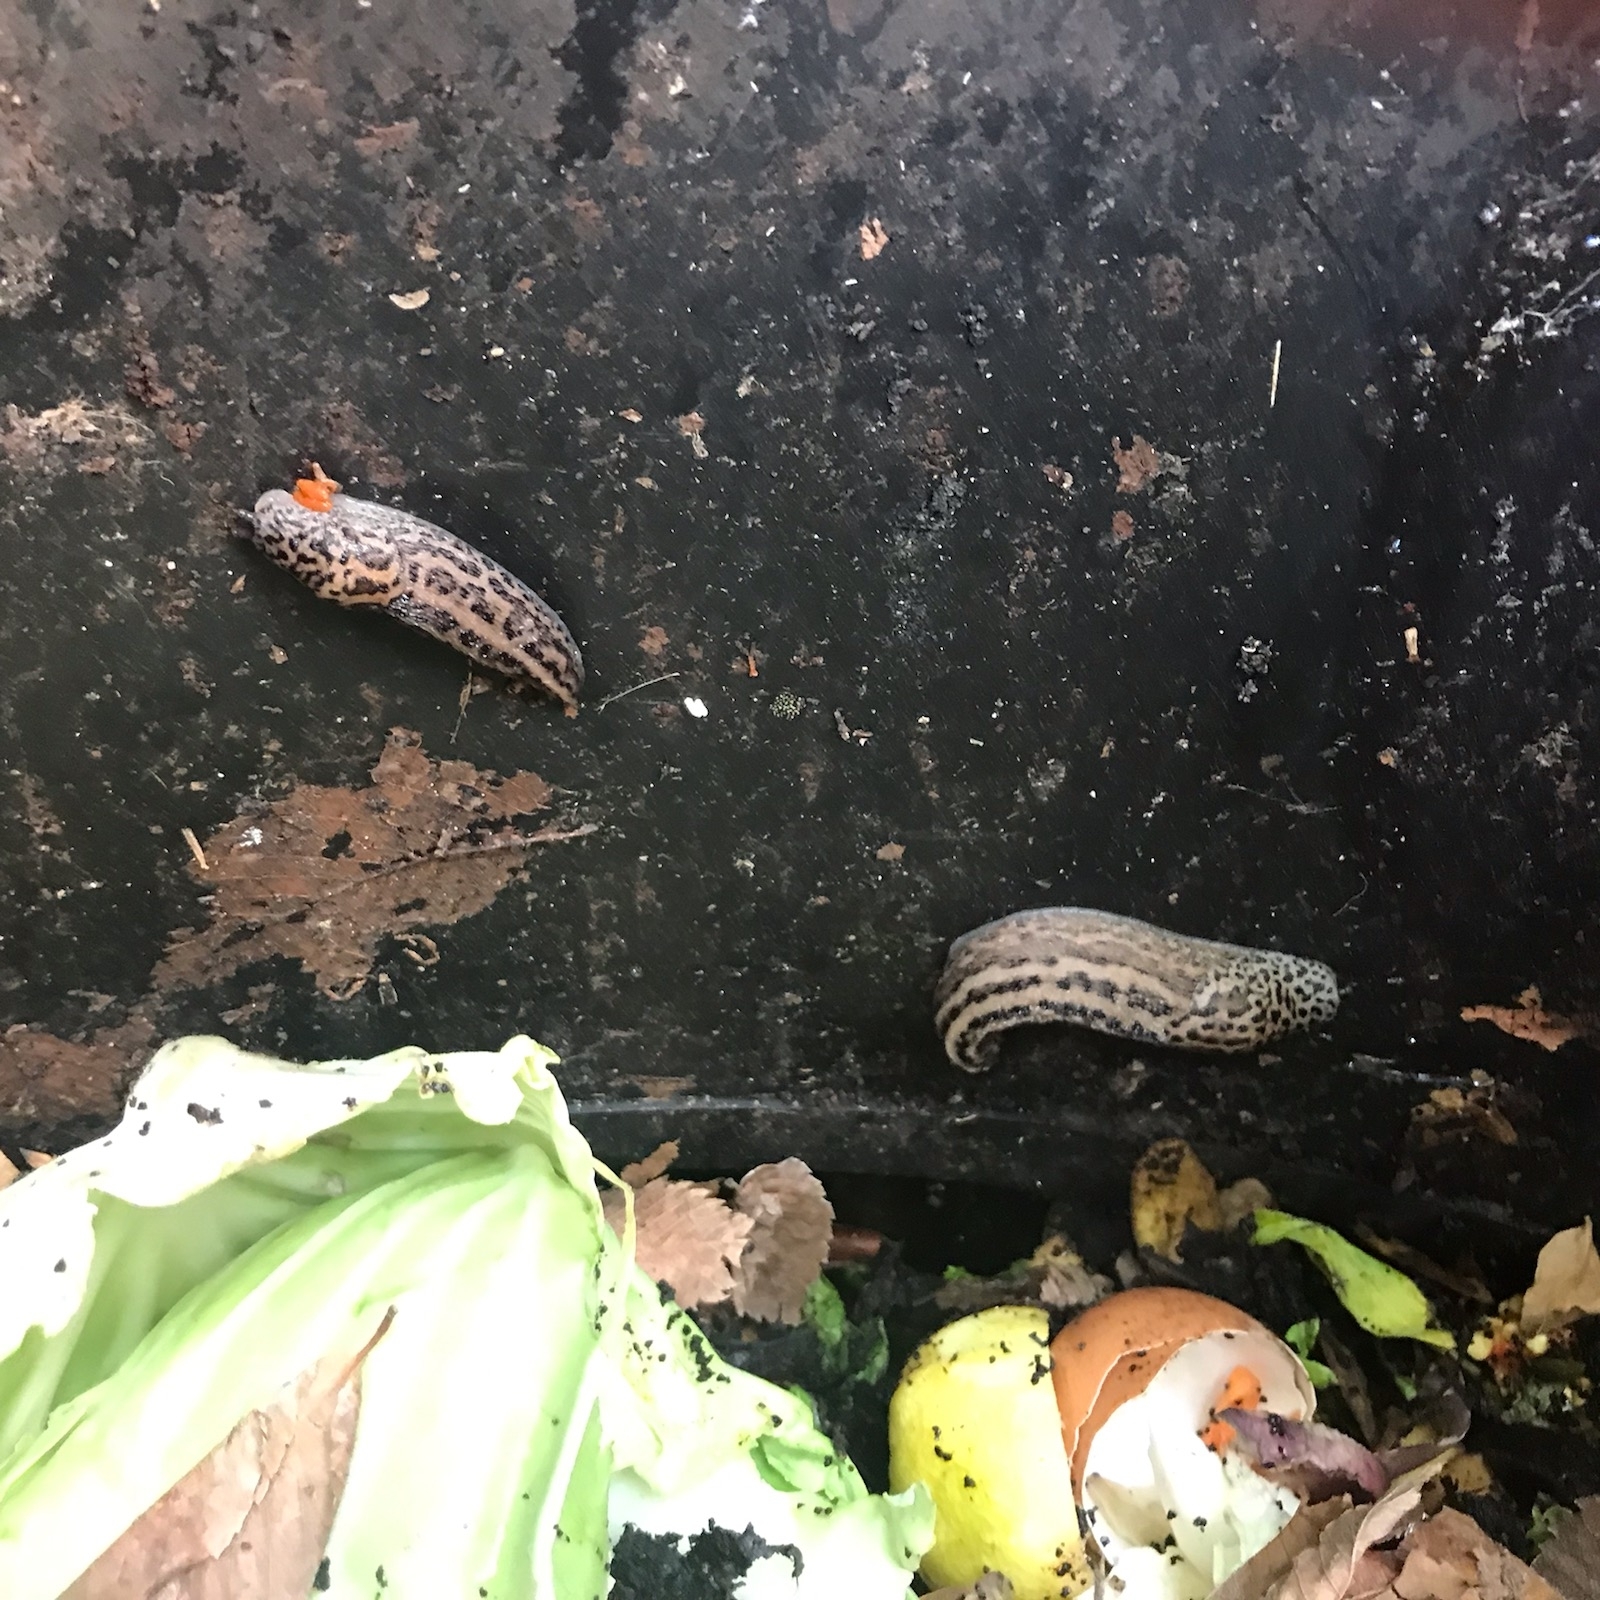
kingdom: Animalia
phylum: Mollusca
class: Gastropoda
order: Stylommatophora
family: Limacidae
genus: Limax
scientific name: Limax maximus
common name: Great grey slug
